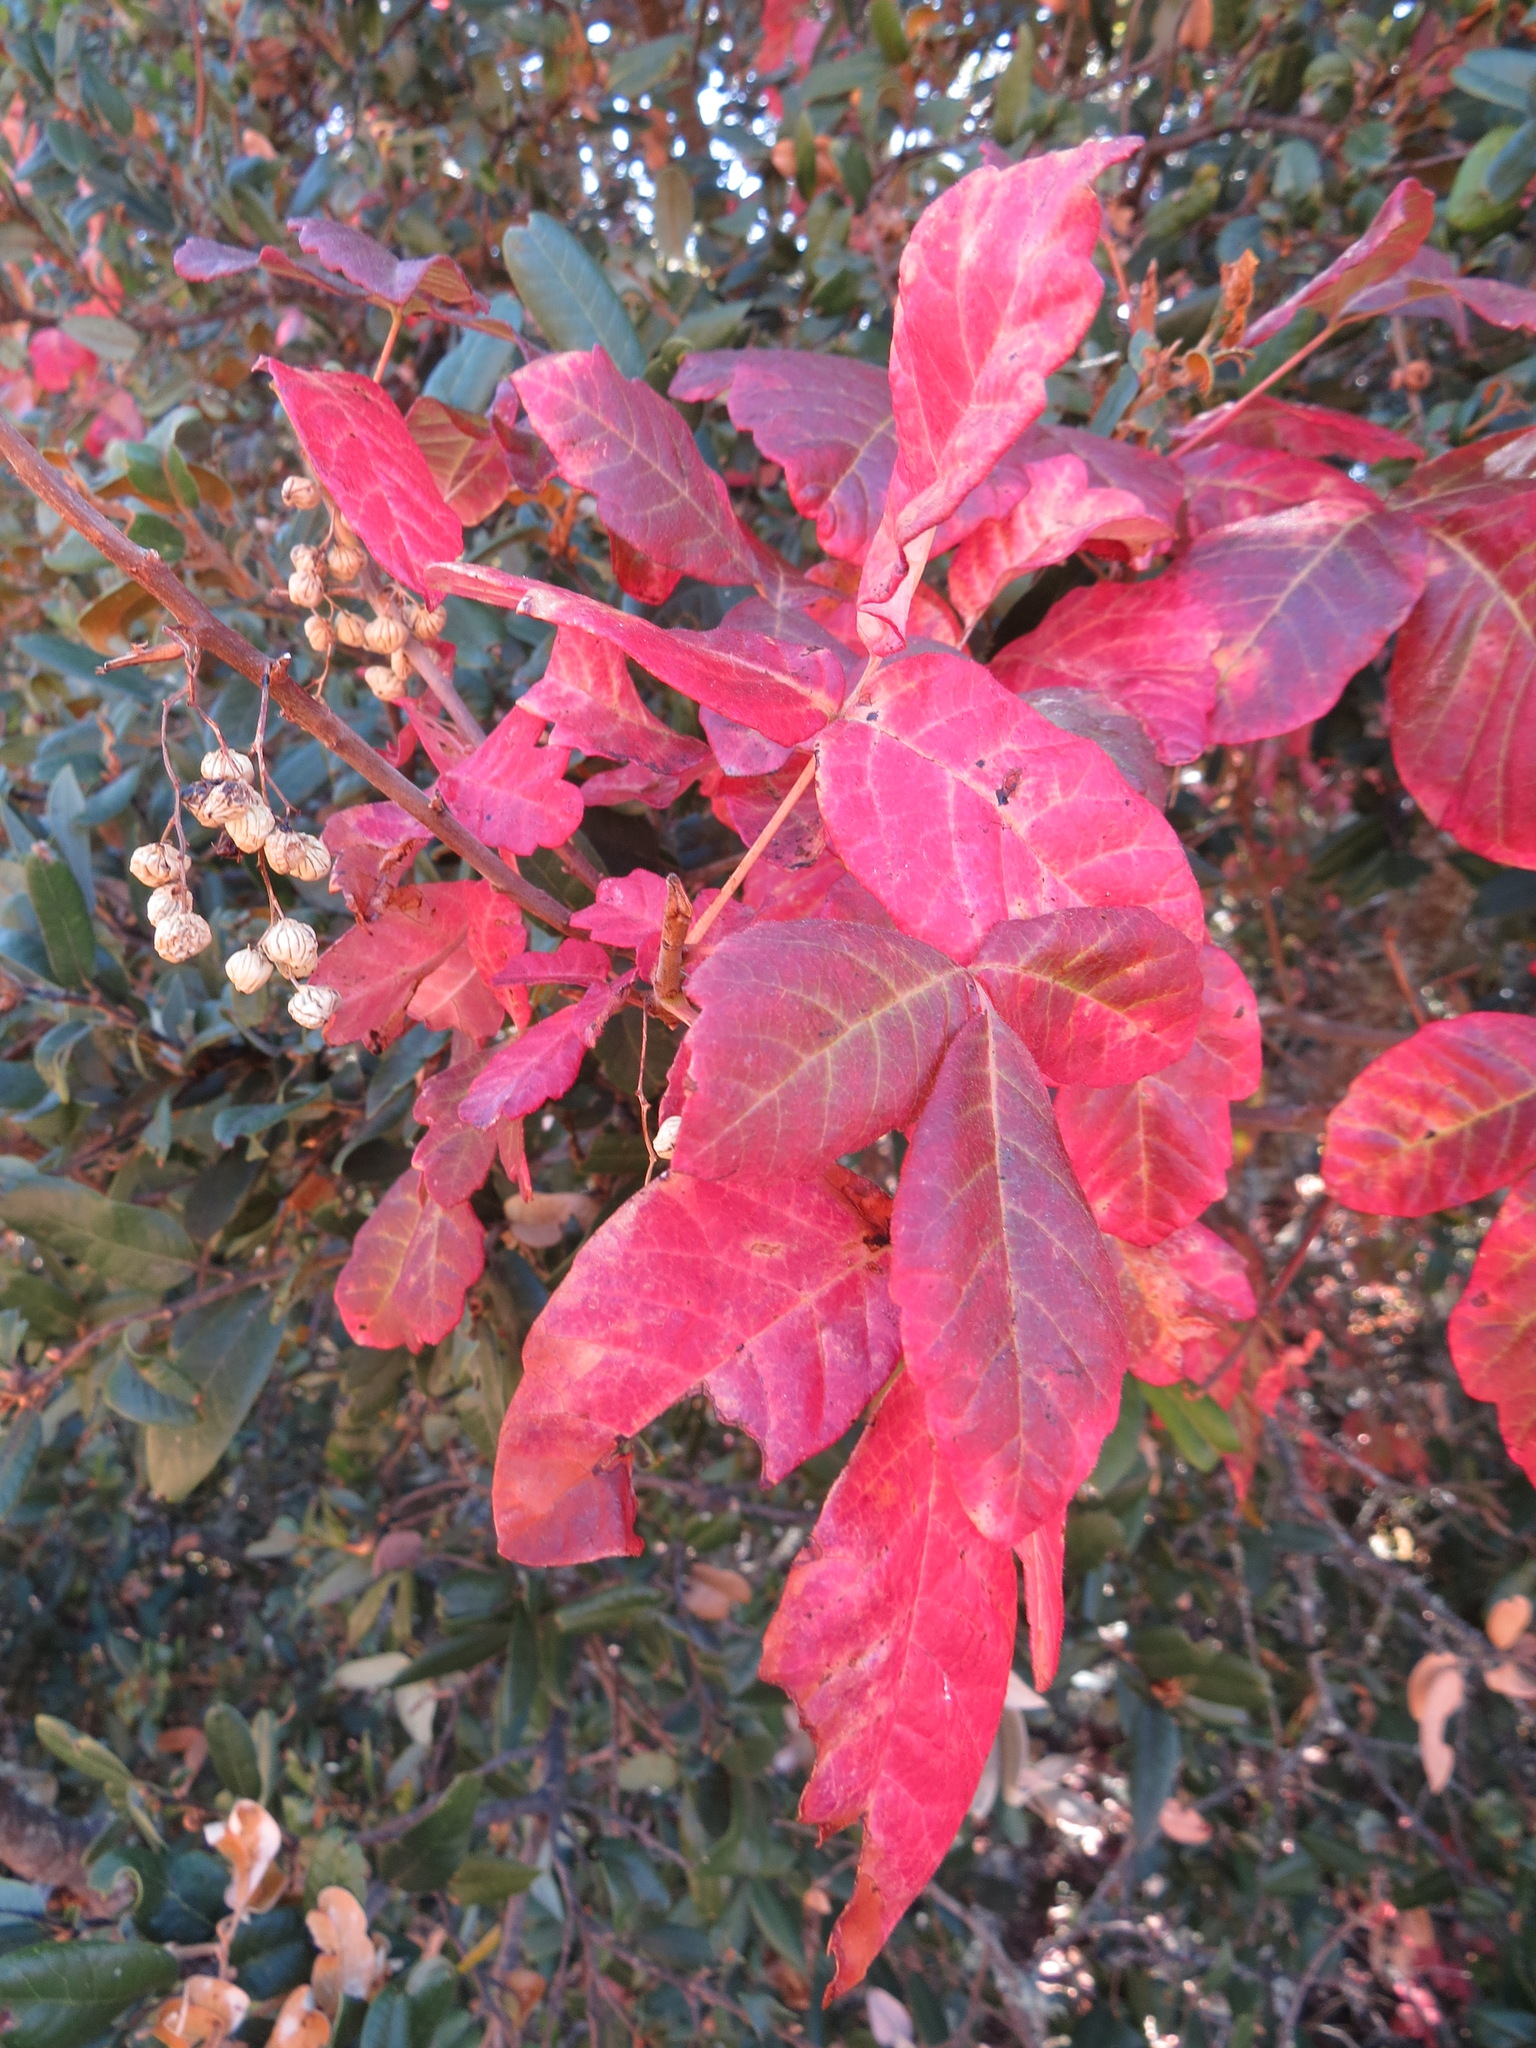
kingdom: Plantae
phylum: Tracheophyta
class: Magnoliopsida
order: Sapindales
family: Anacardiaceae
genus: Toxicodendron
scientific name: Toxicodendron diversilobum
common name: Pacific poison-oak
